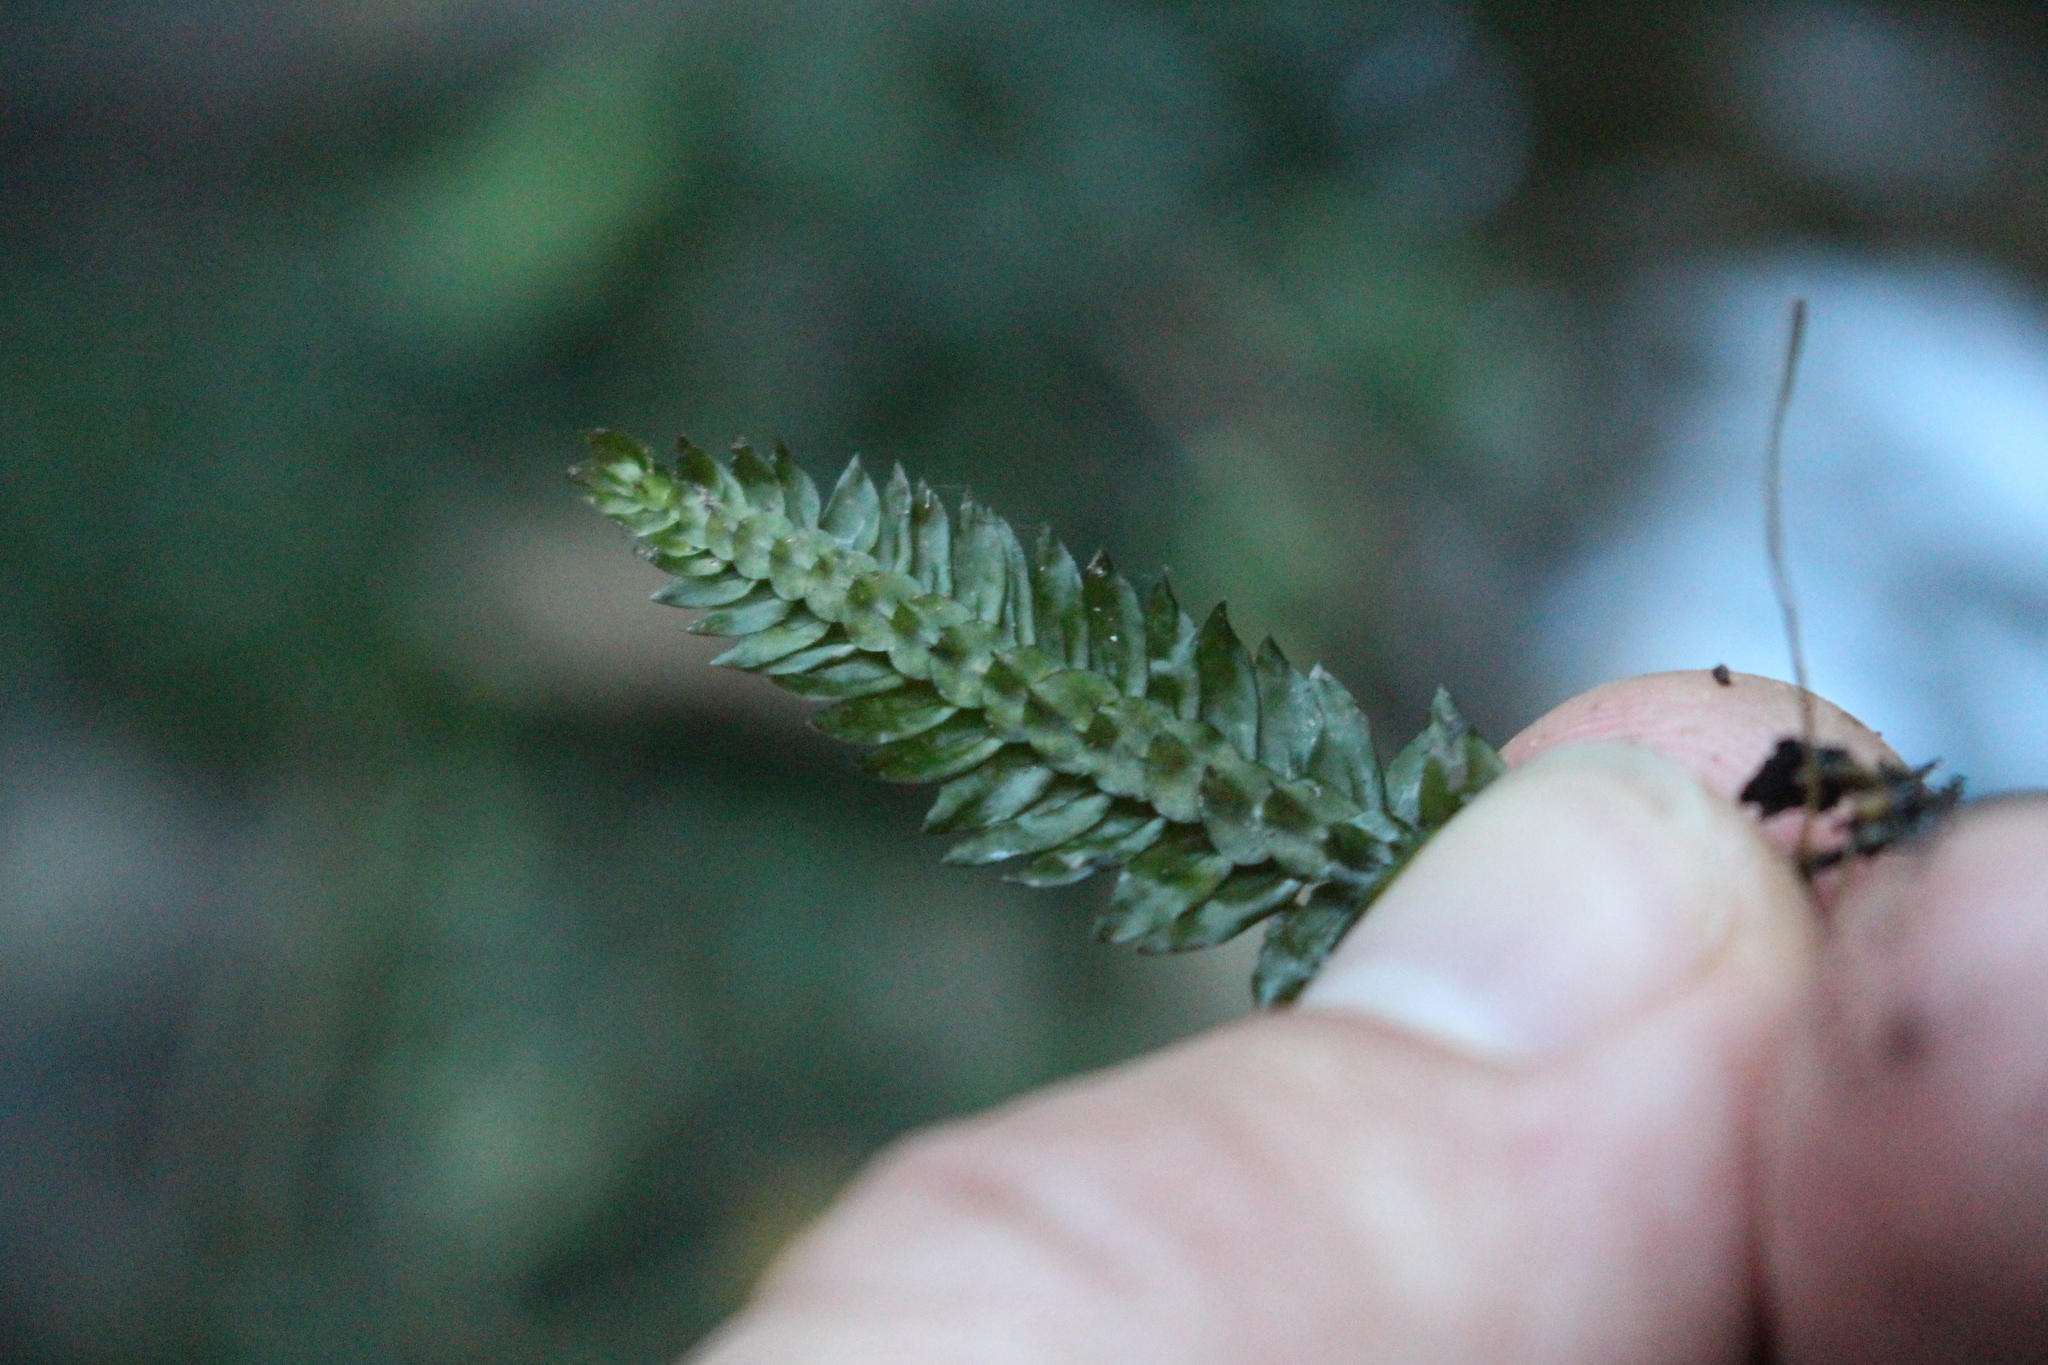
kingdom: Plantae
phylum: Bryophyta
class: Bryopsida
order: Hypopterygiales
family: Hypopterygiaceae
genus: Cyathophorum
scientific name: Cyathophorum bulbosum
